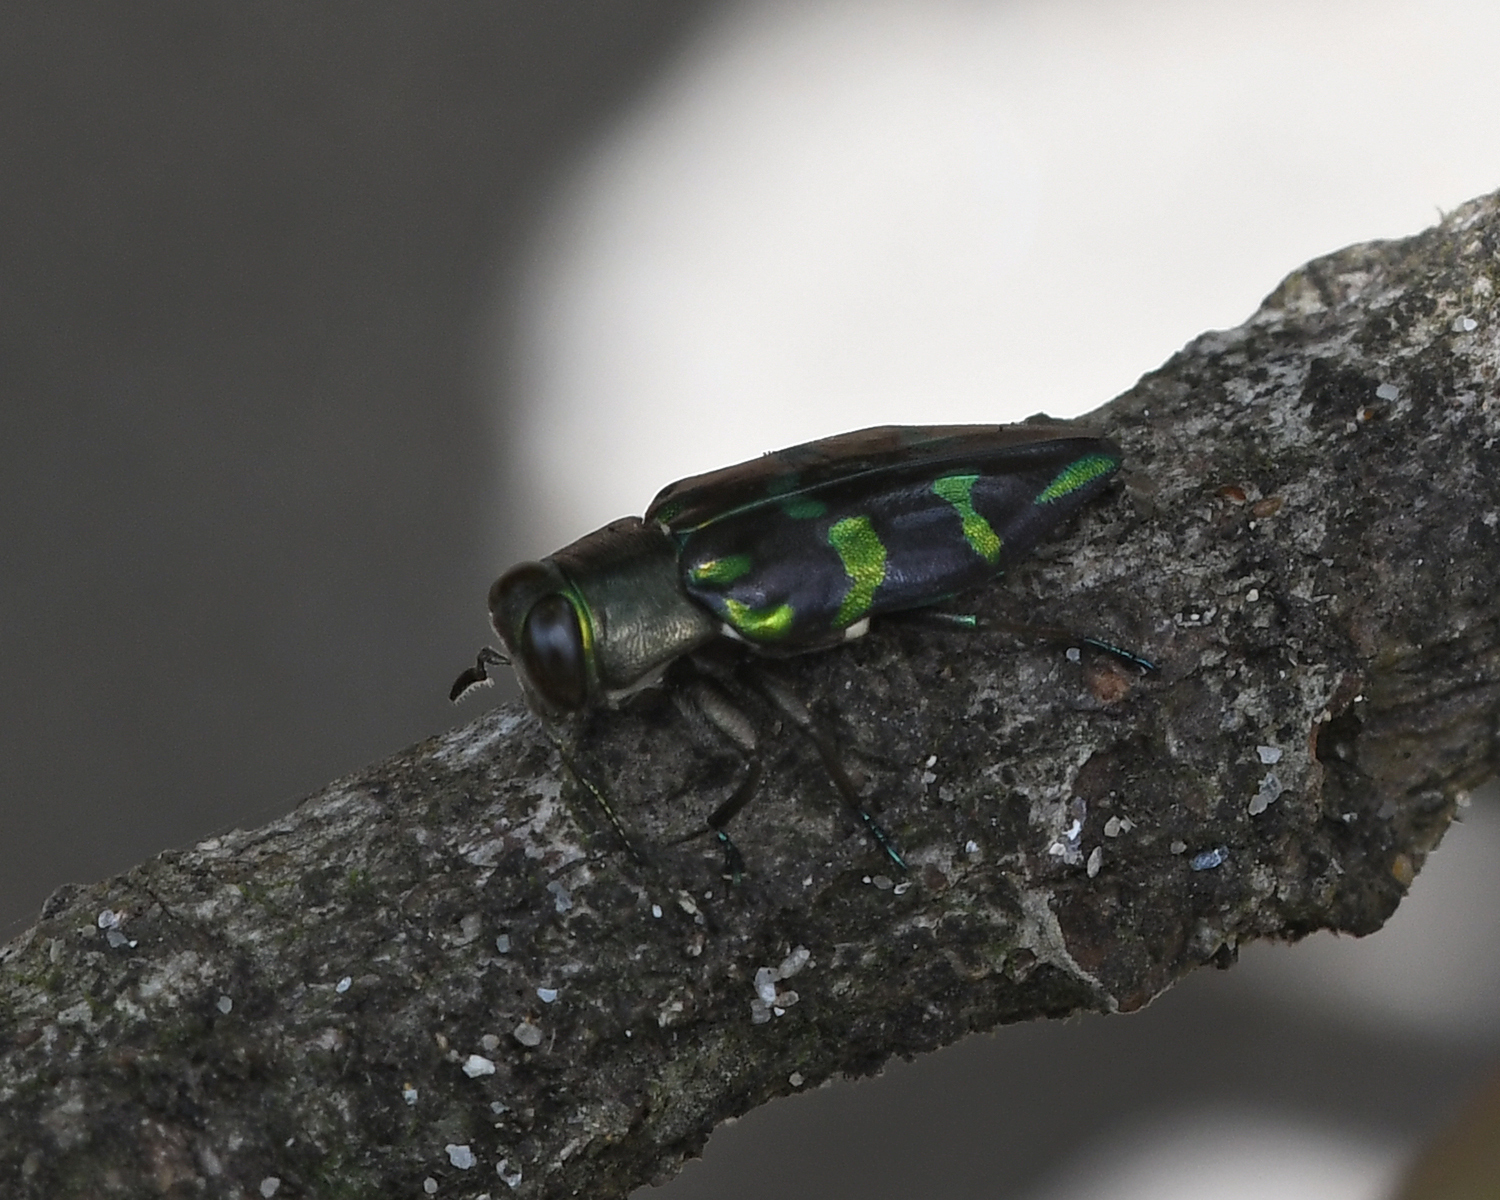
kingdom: Animalia
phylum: Arthropoda
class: Insecta
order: Coleoptera
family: Buprestidae
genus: Chrysobothris
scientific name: Chrysobothris viridiimpressa
